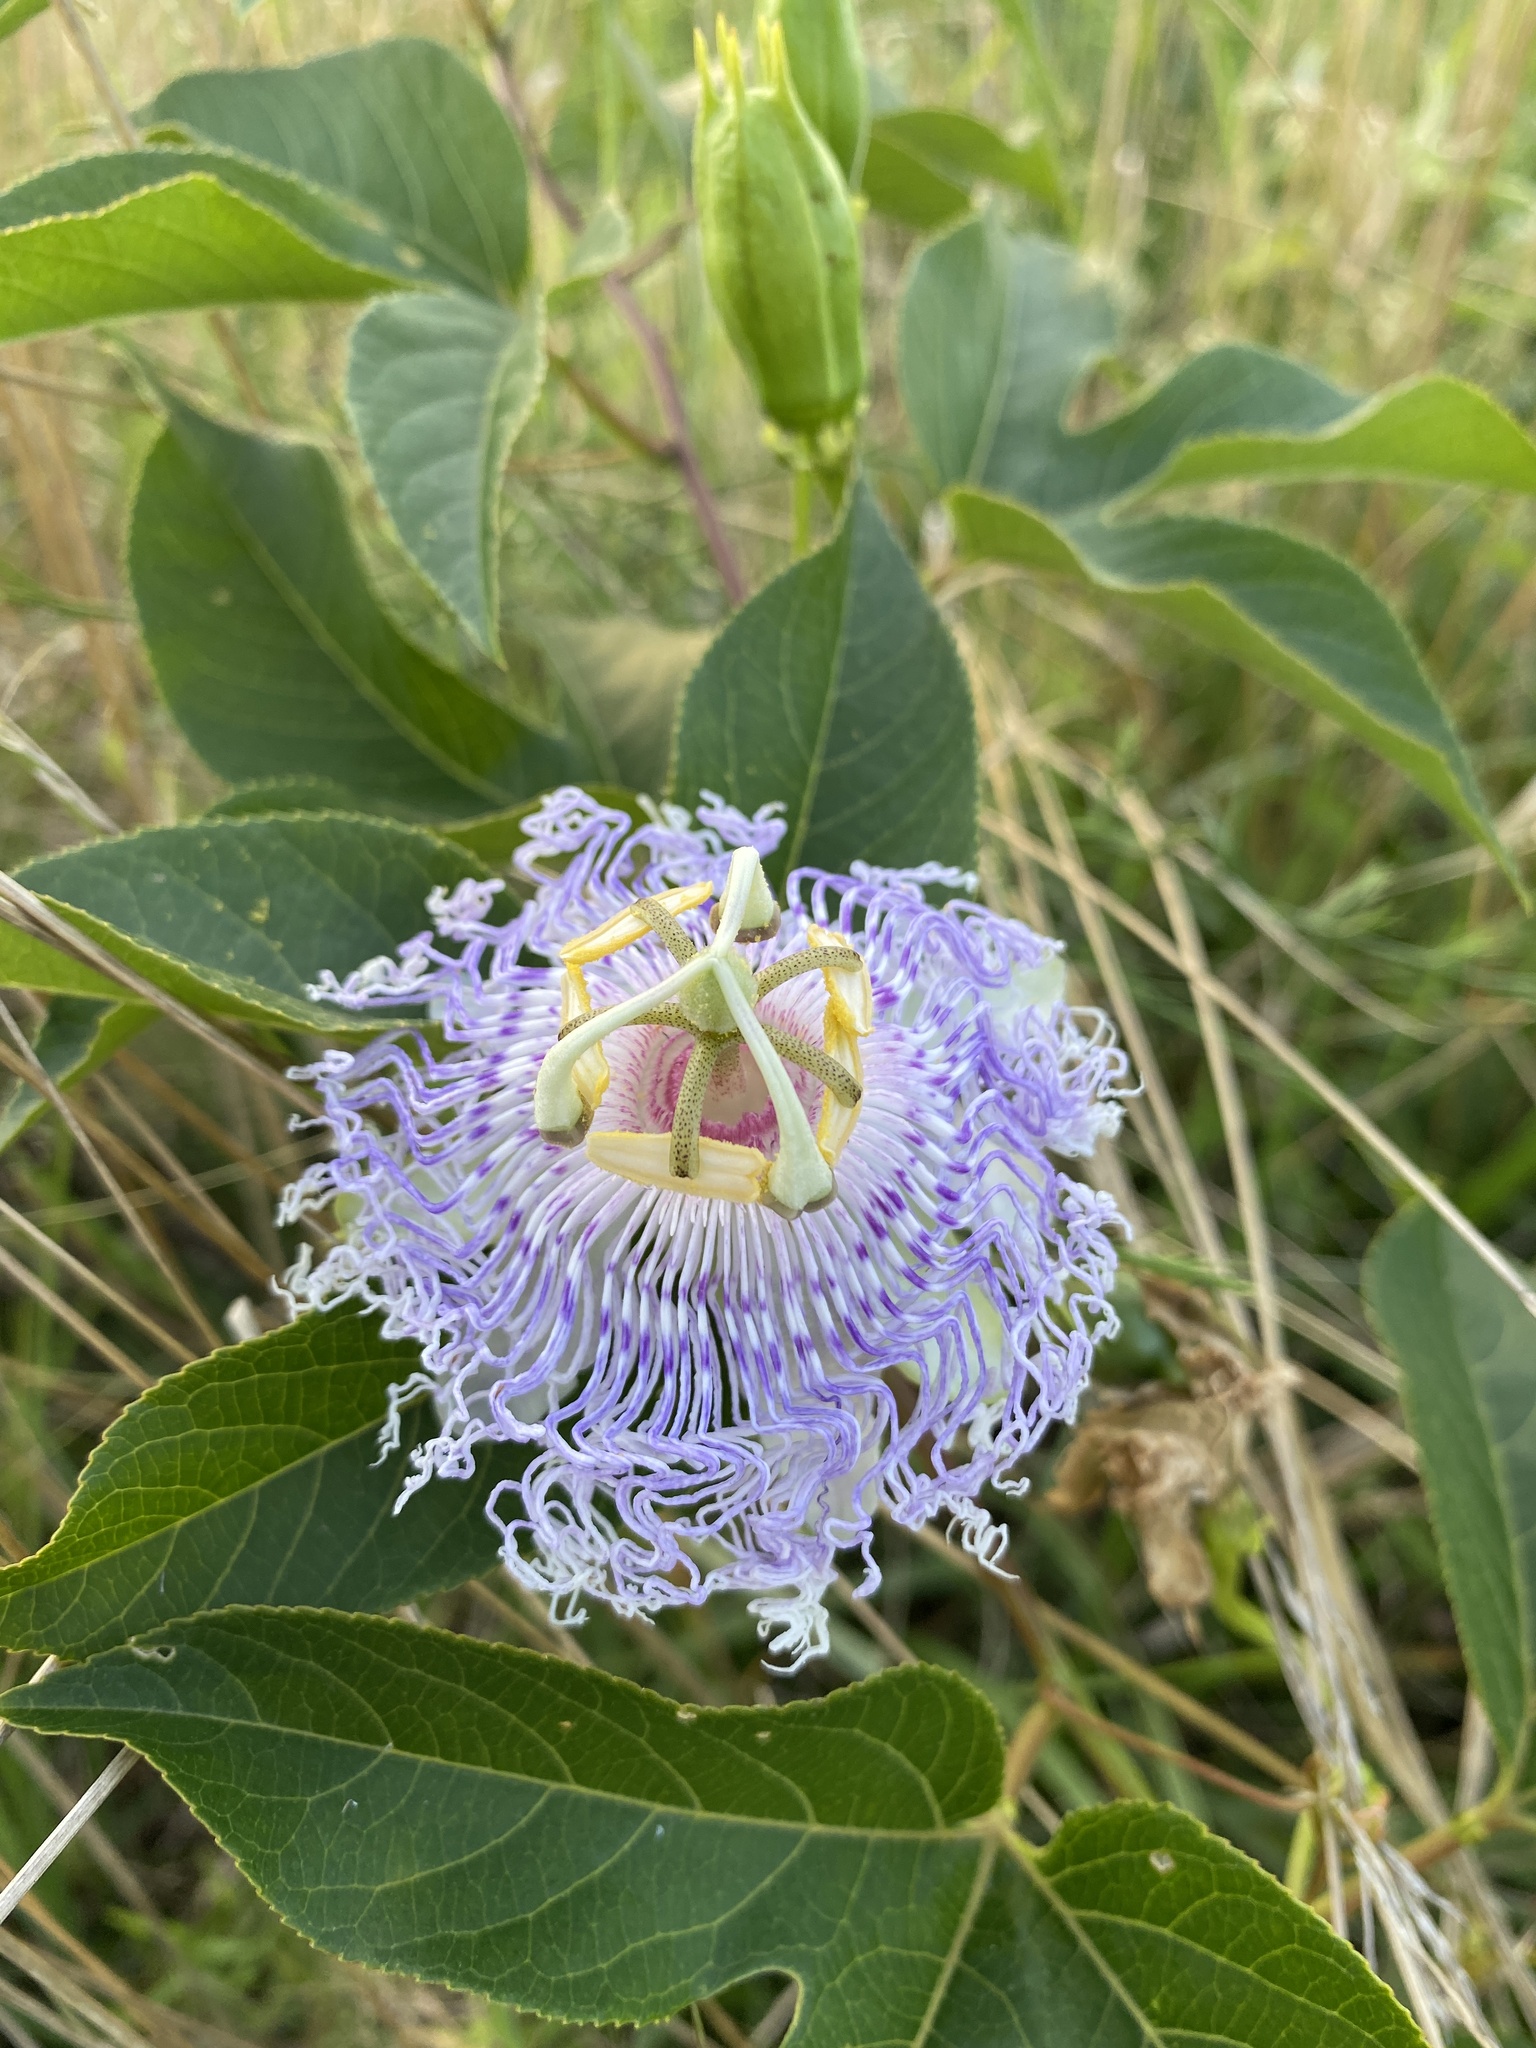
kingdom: Plantae
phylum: Tracheophyta
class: Magnoliopsida
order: Malpighiales
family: Passifloraceae
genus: Passiflora
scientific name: Passiflora incarnata
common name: Apricot-vine
